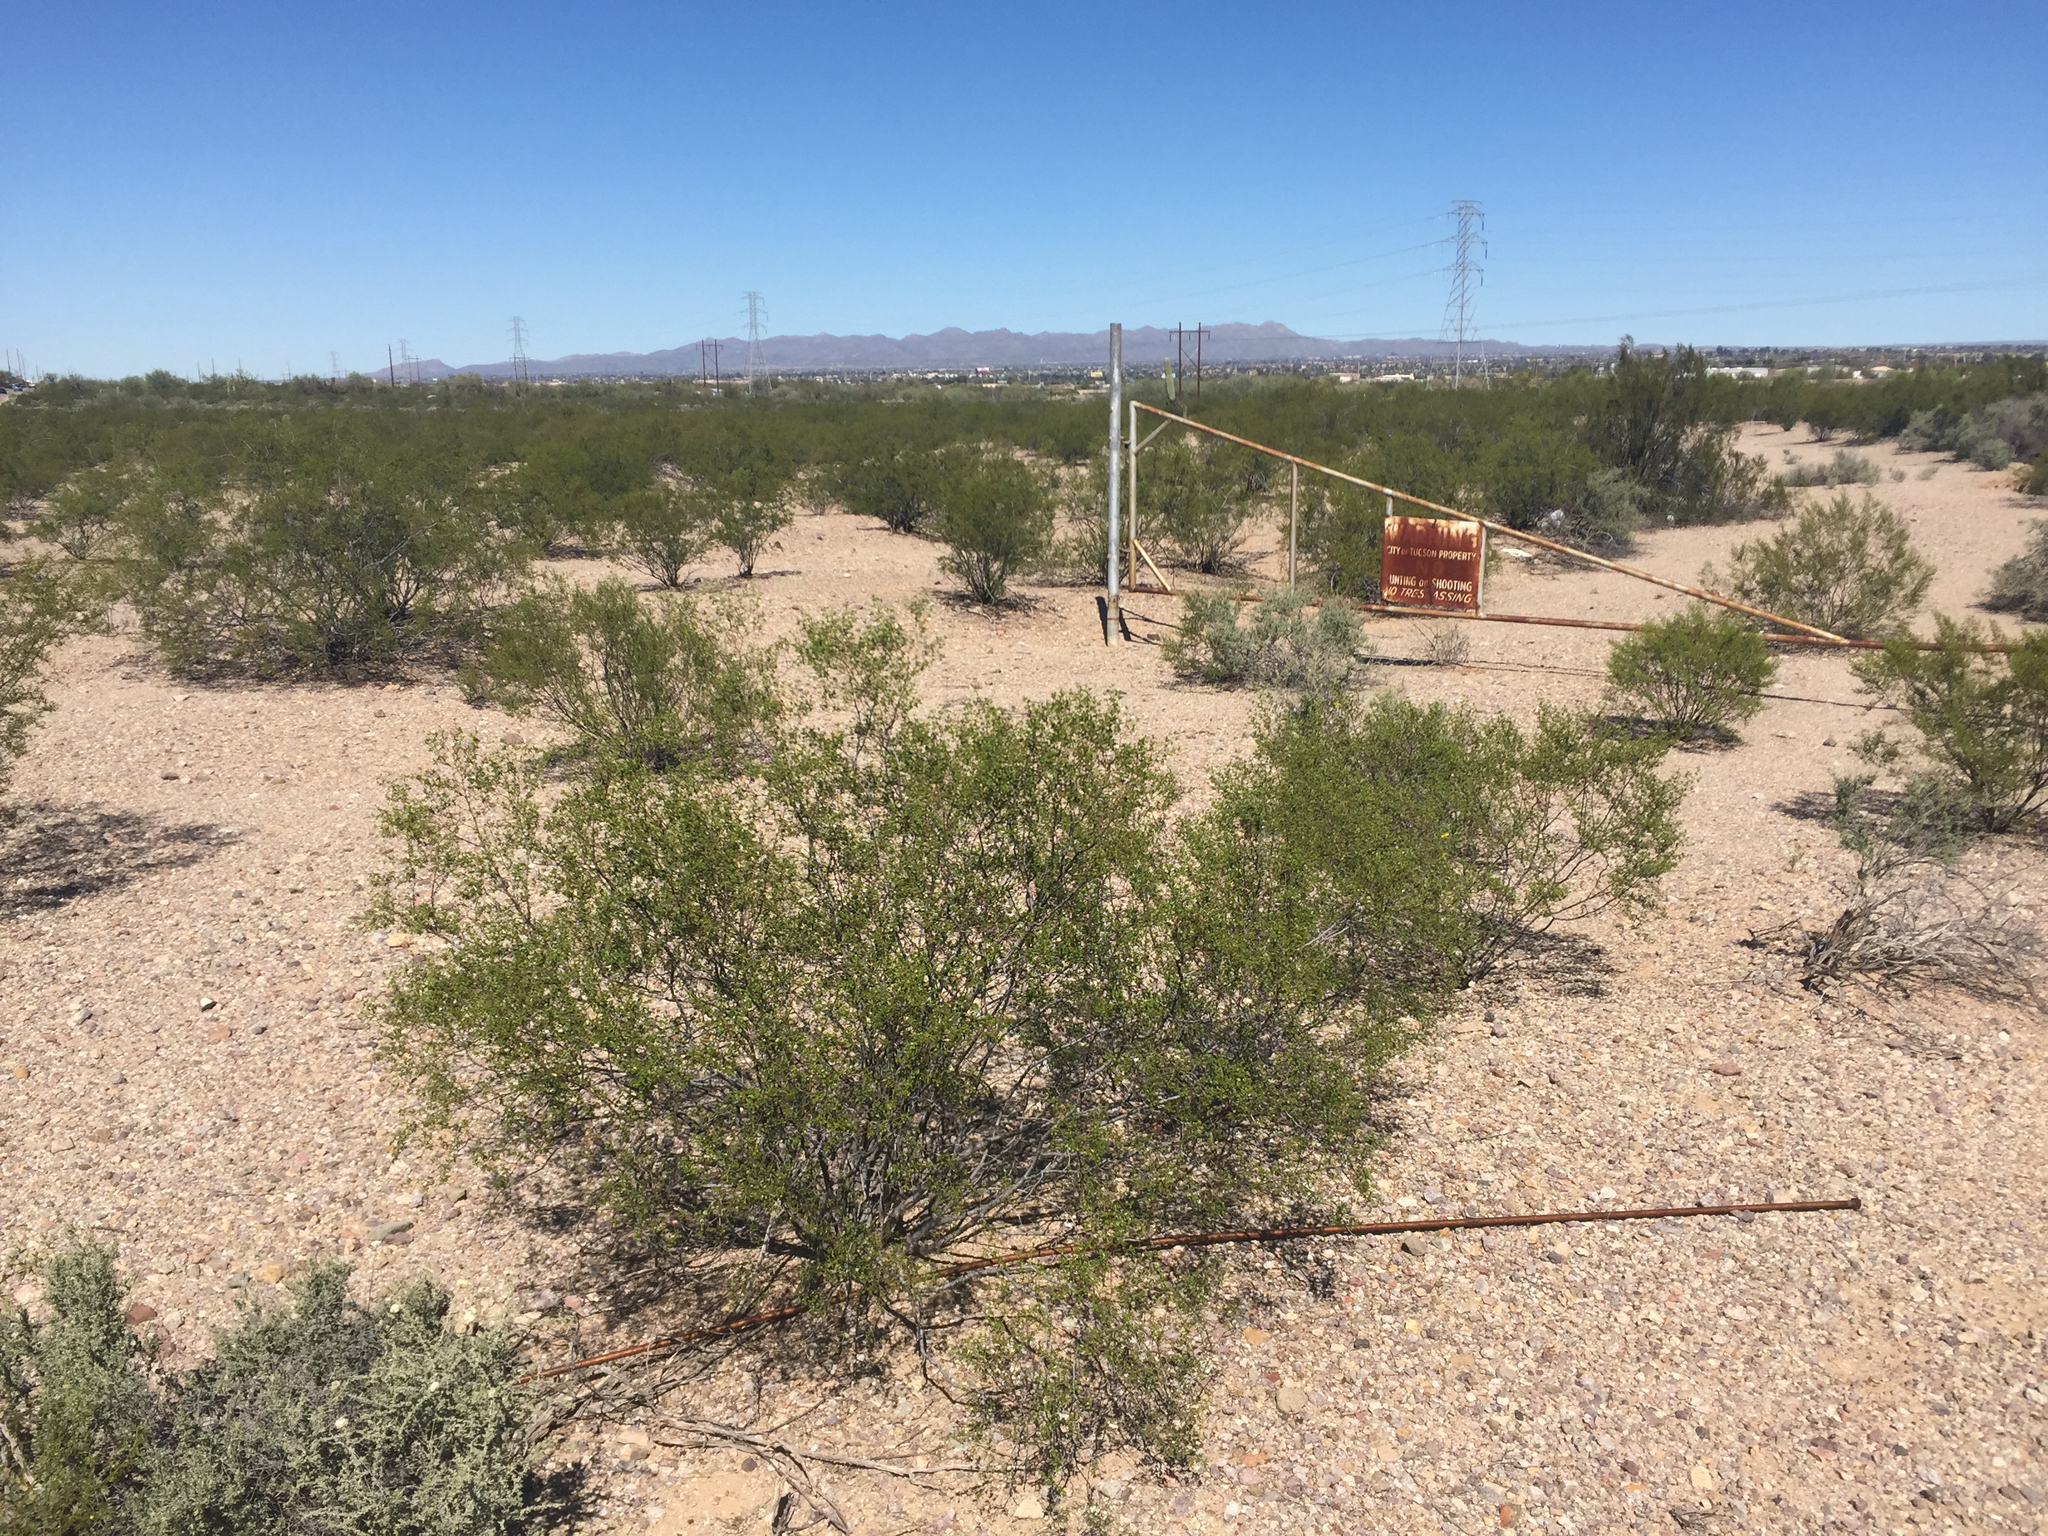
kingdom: Plantae
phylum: Tracheophyta
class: Magnoliopsida
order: Zygophyllales
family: Zygophyllaceae
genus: Larrea
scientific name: Larrea tridentata
